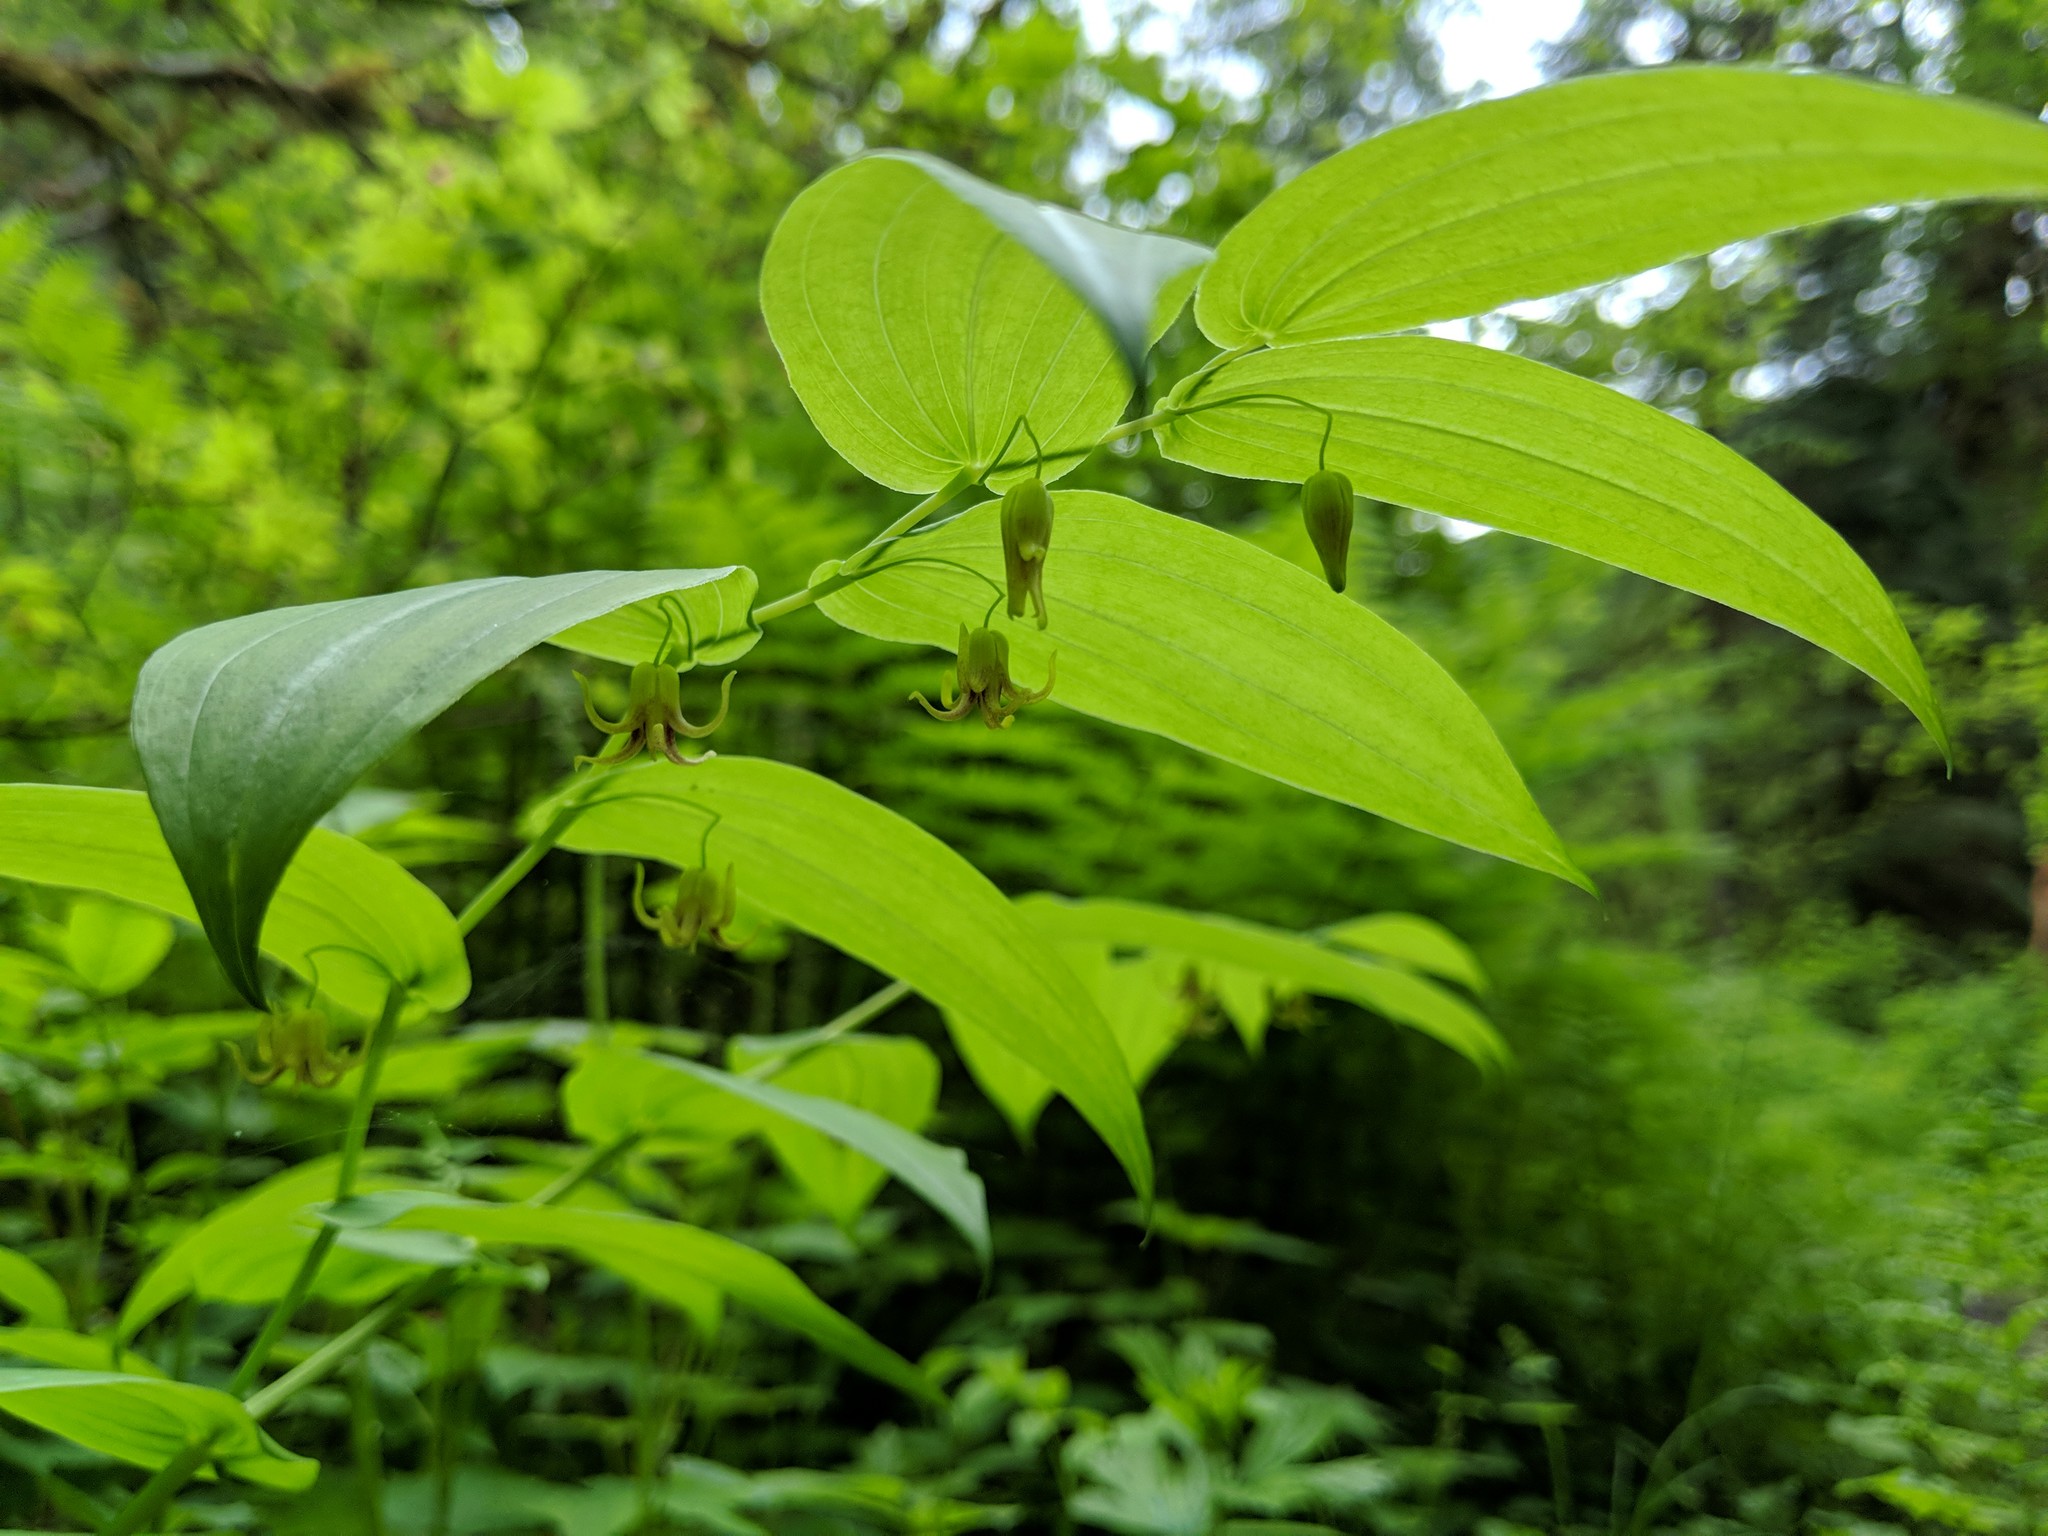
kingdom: Plantae
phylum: Tracheophyta
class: Liliopsida
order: Liliales
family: Liliaceae
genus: Streptopus
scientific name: Streptopus amplexifolius
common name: Clasp twisted stalk
